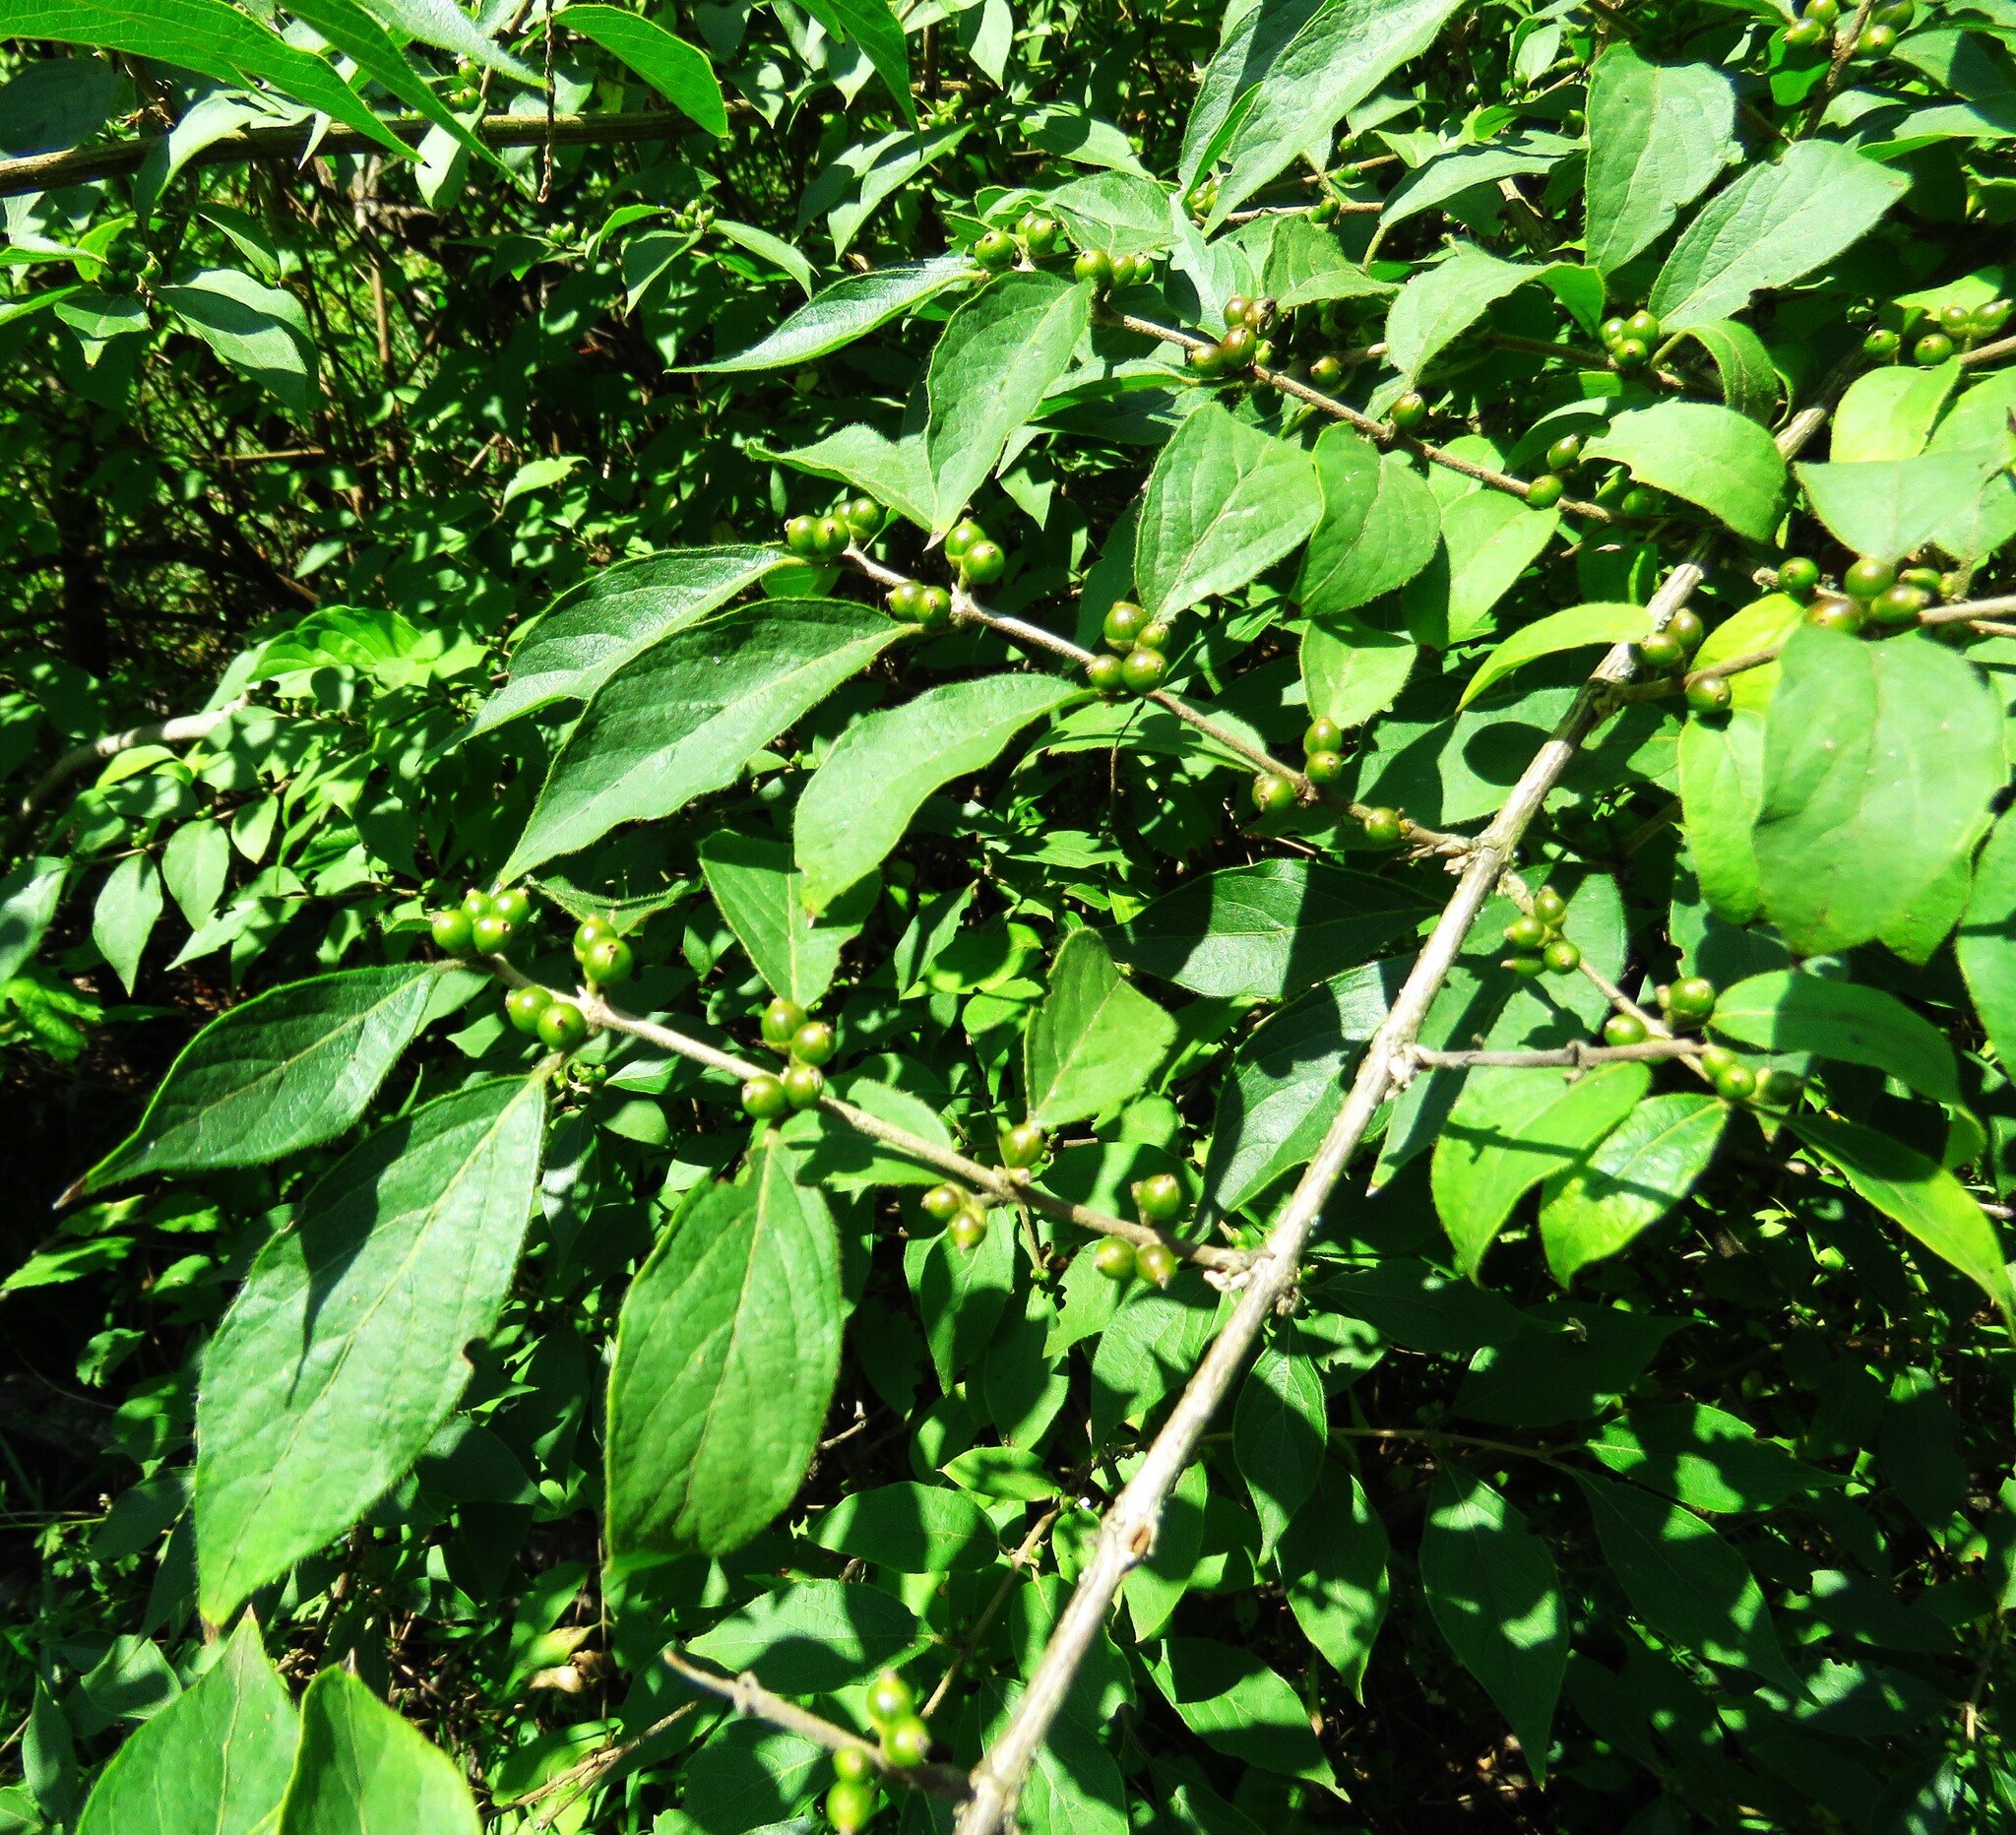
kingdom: Plantae
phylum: Tracheophyta
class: Magnoliopsida
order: Dipsacales
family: Caprifoliaceae
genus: Lonicera
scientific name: Lonicera maackii
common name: Amur honeysuckle
